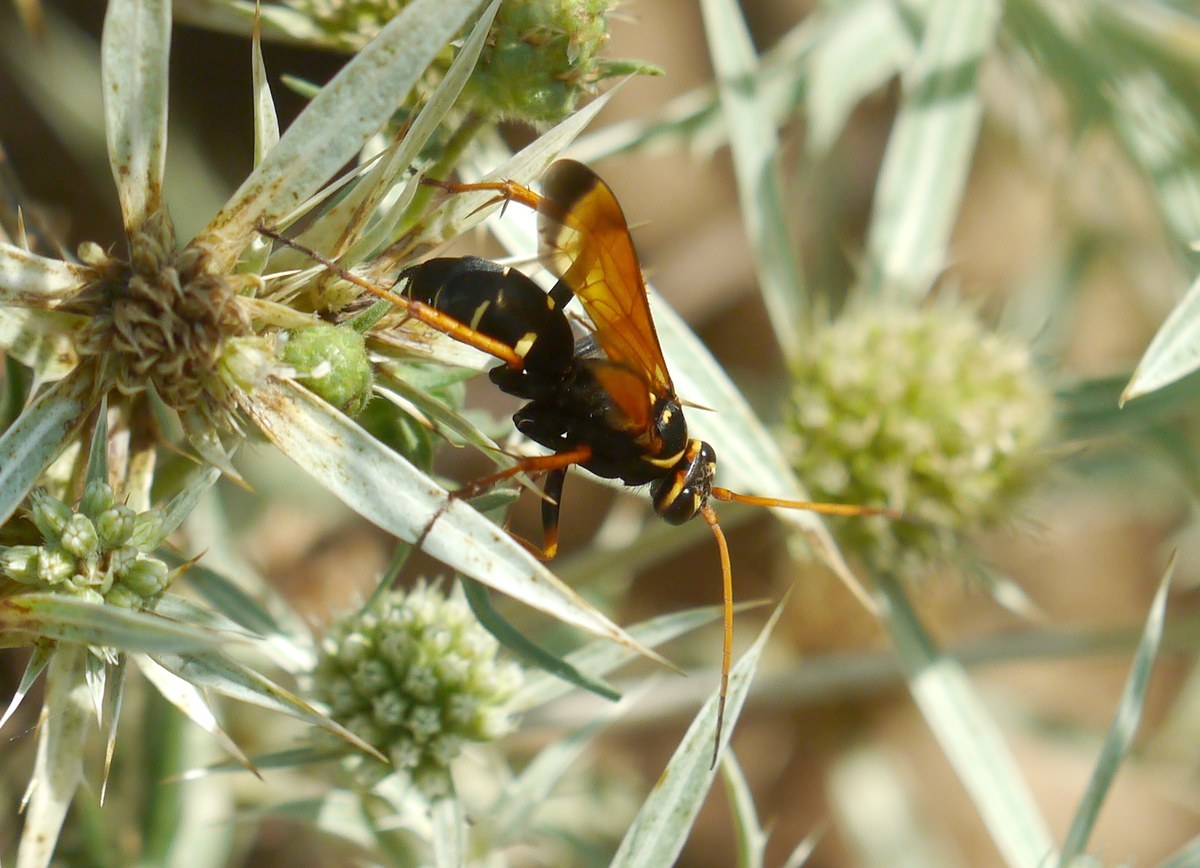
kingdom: Animalia
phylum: Arthropoda
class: Insecta
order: Hymenoptera
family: Pompilidae
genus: Parabatozonus
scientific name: Parabatozonus lacerticida
